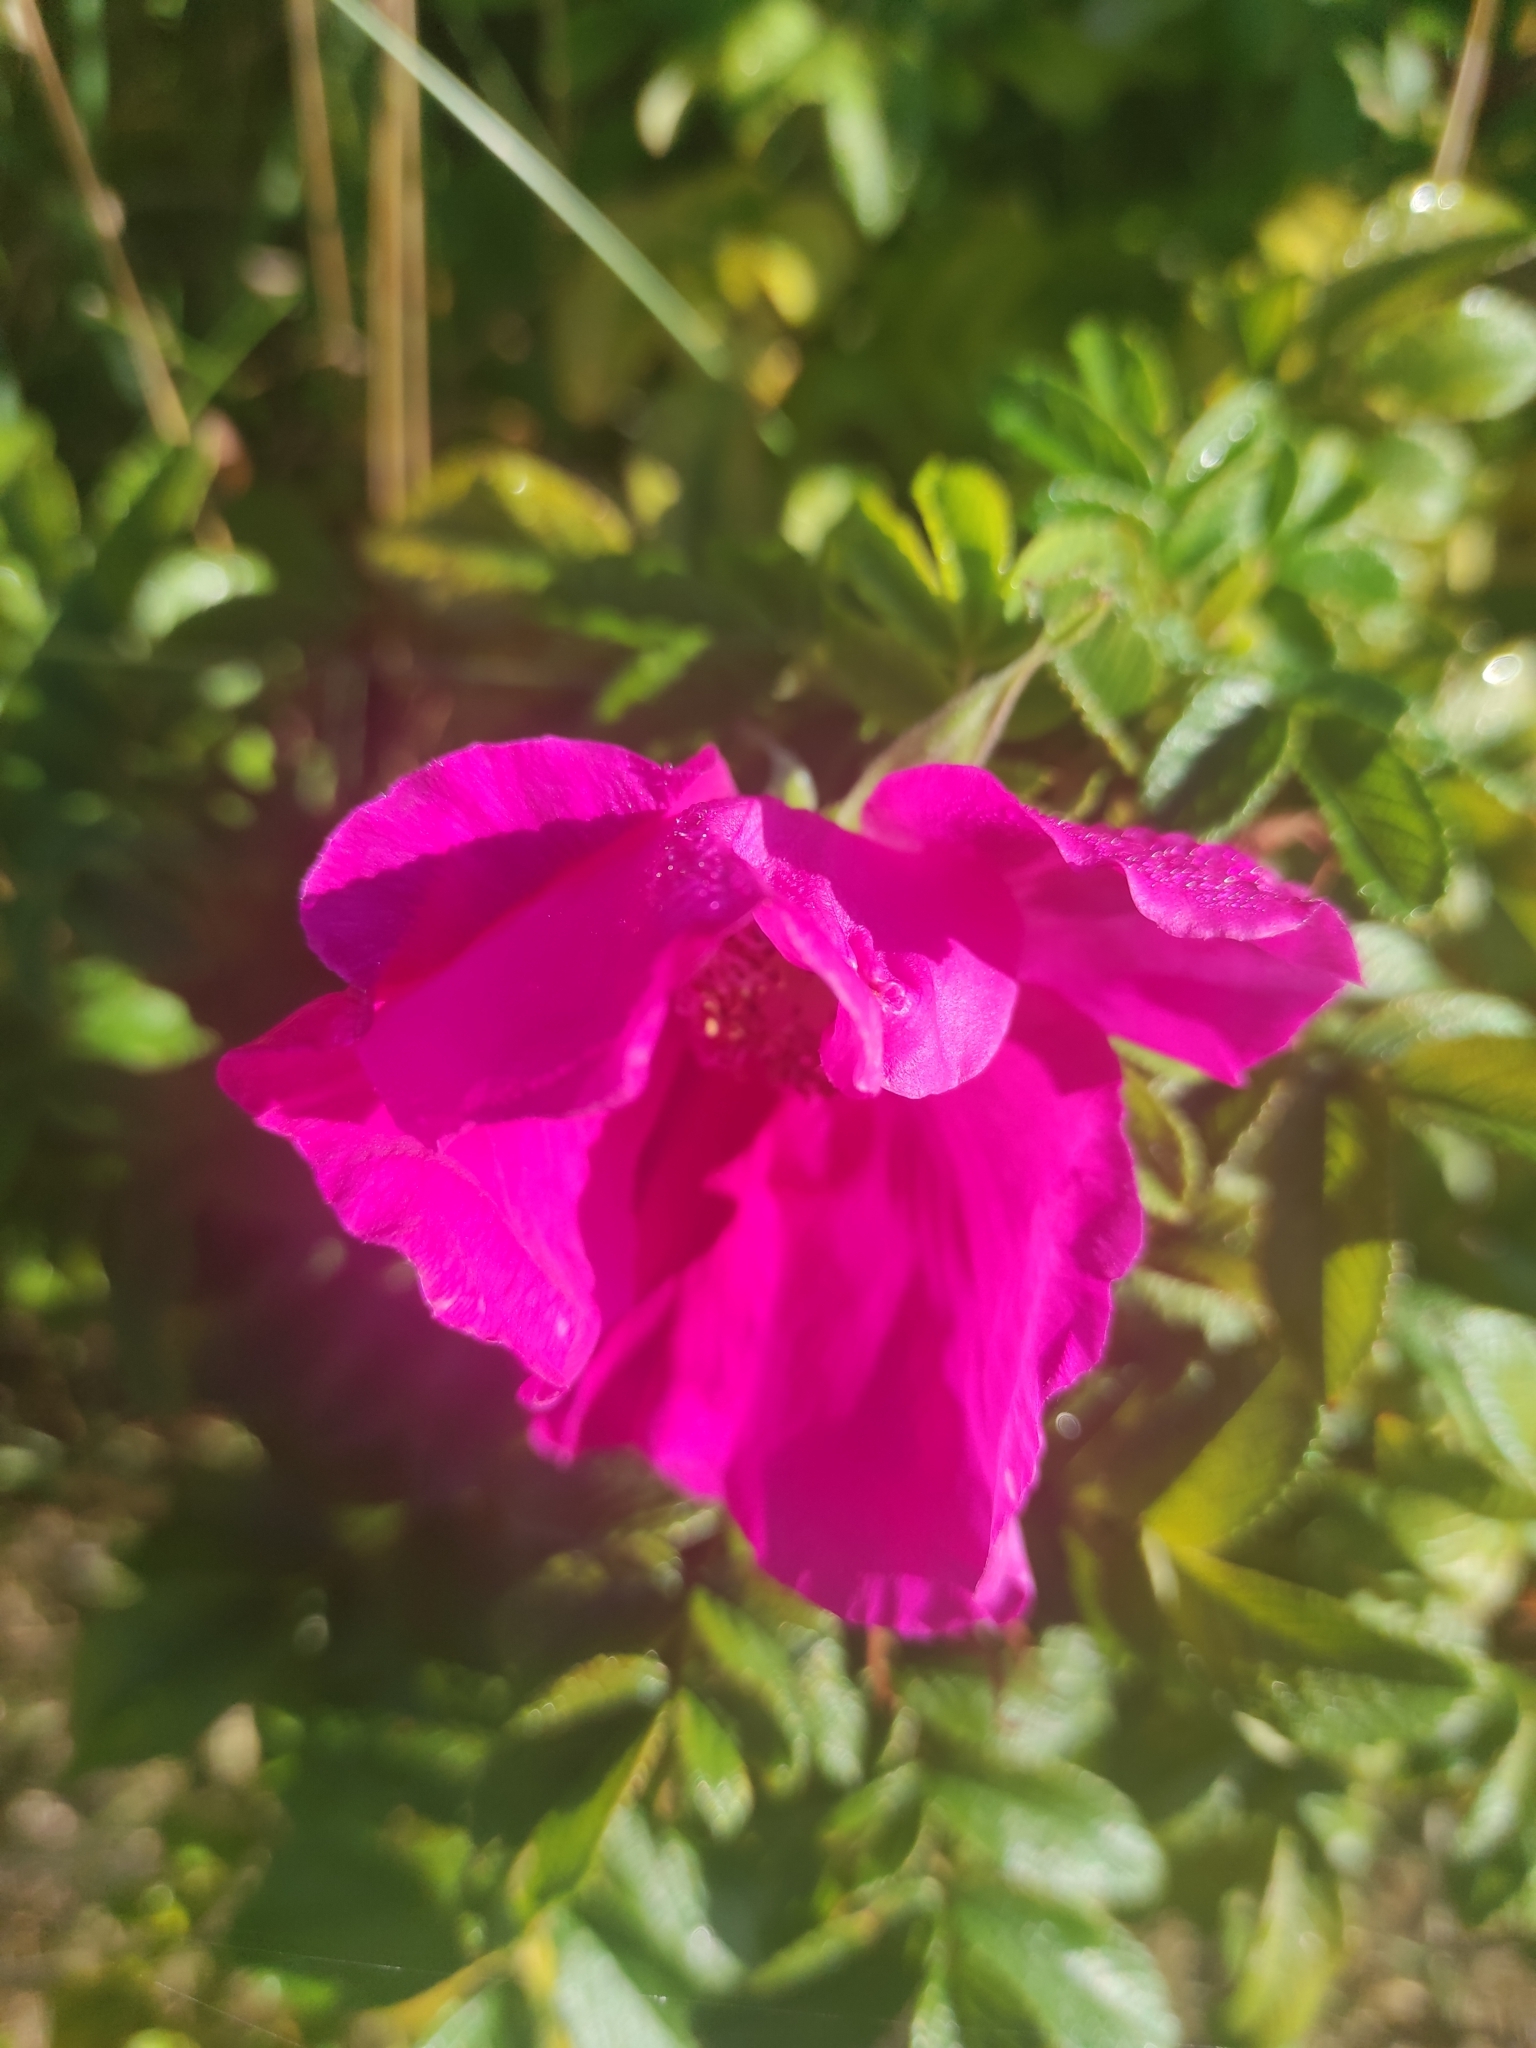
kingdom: Plantae
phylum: Tracheophyta
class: Magnoliopsida
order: Rosales
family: Rosaceae
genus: Rosa
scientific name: Rosa rugosa
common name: Japanese rose
